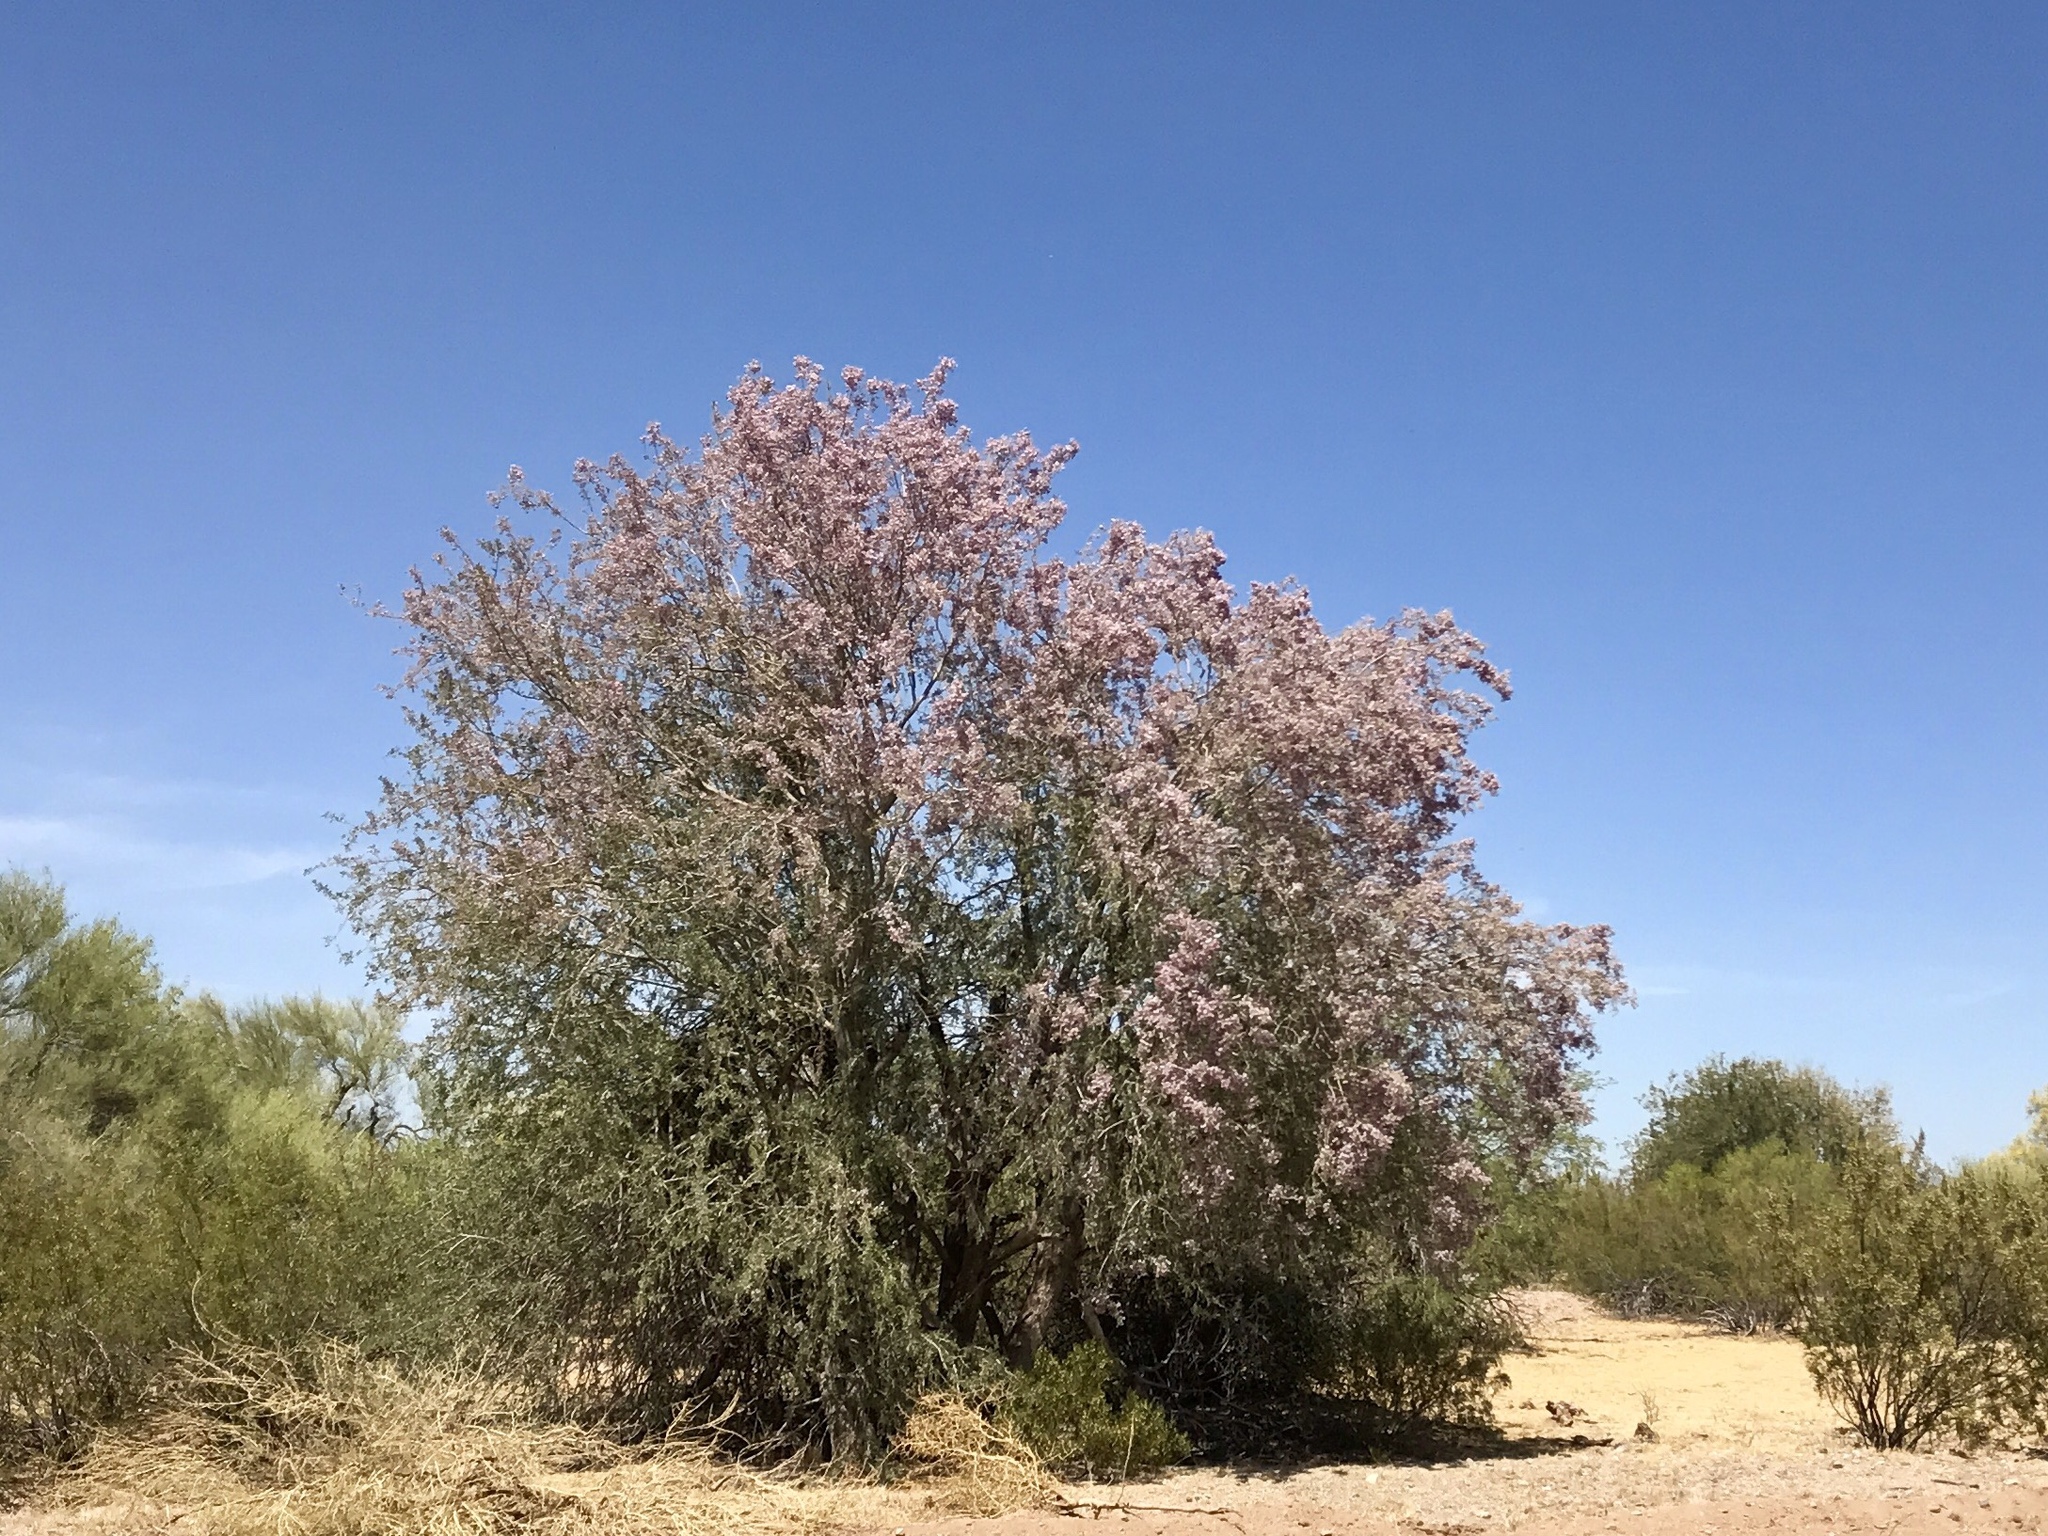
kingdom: Plantae
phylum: Tracheophyta
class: Magnoliopsida
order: Fabales
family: Fabaceae
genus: Olneya
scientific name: Olneya tesota
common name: Desert ironwood
